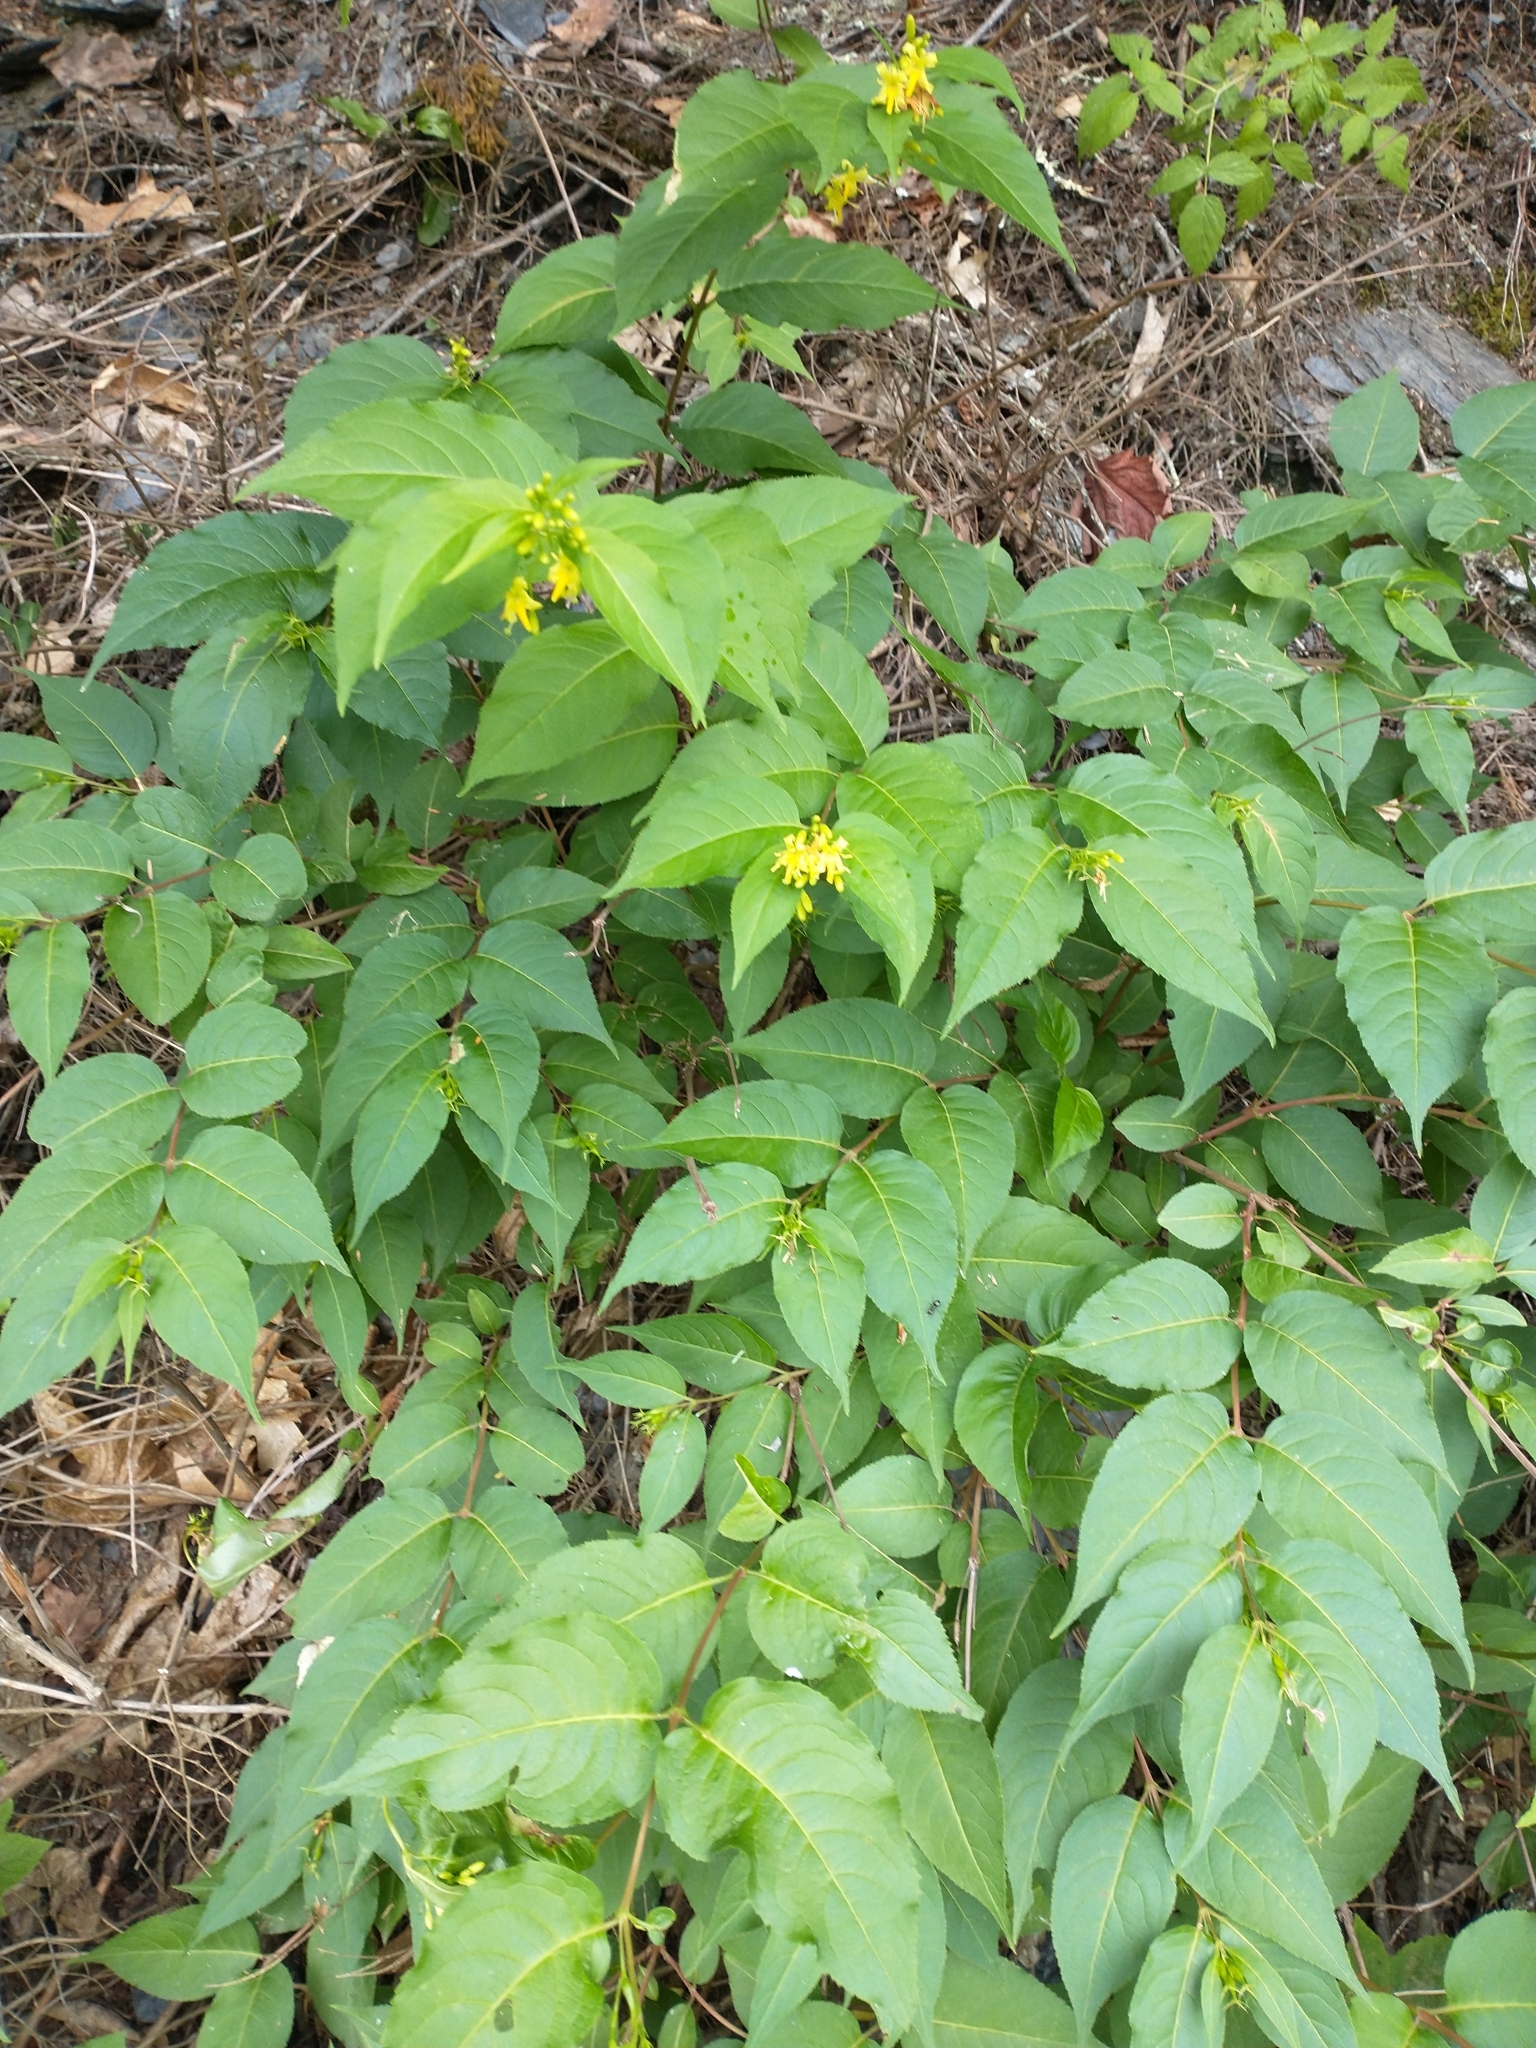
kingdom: Plantae
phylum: Tracheophyta
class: Magnoliopsida
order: Dipsacales
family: Caprifoliaceae
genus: Diervilla
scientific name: Diervilla lonicera
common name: Bush-honeysuckle
